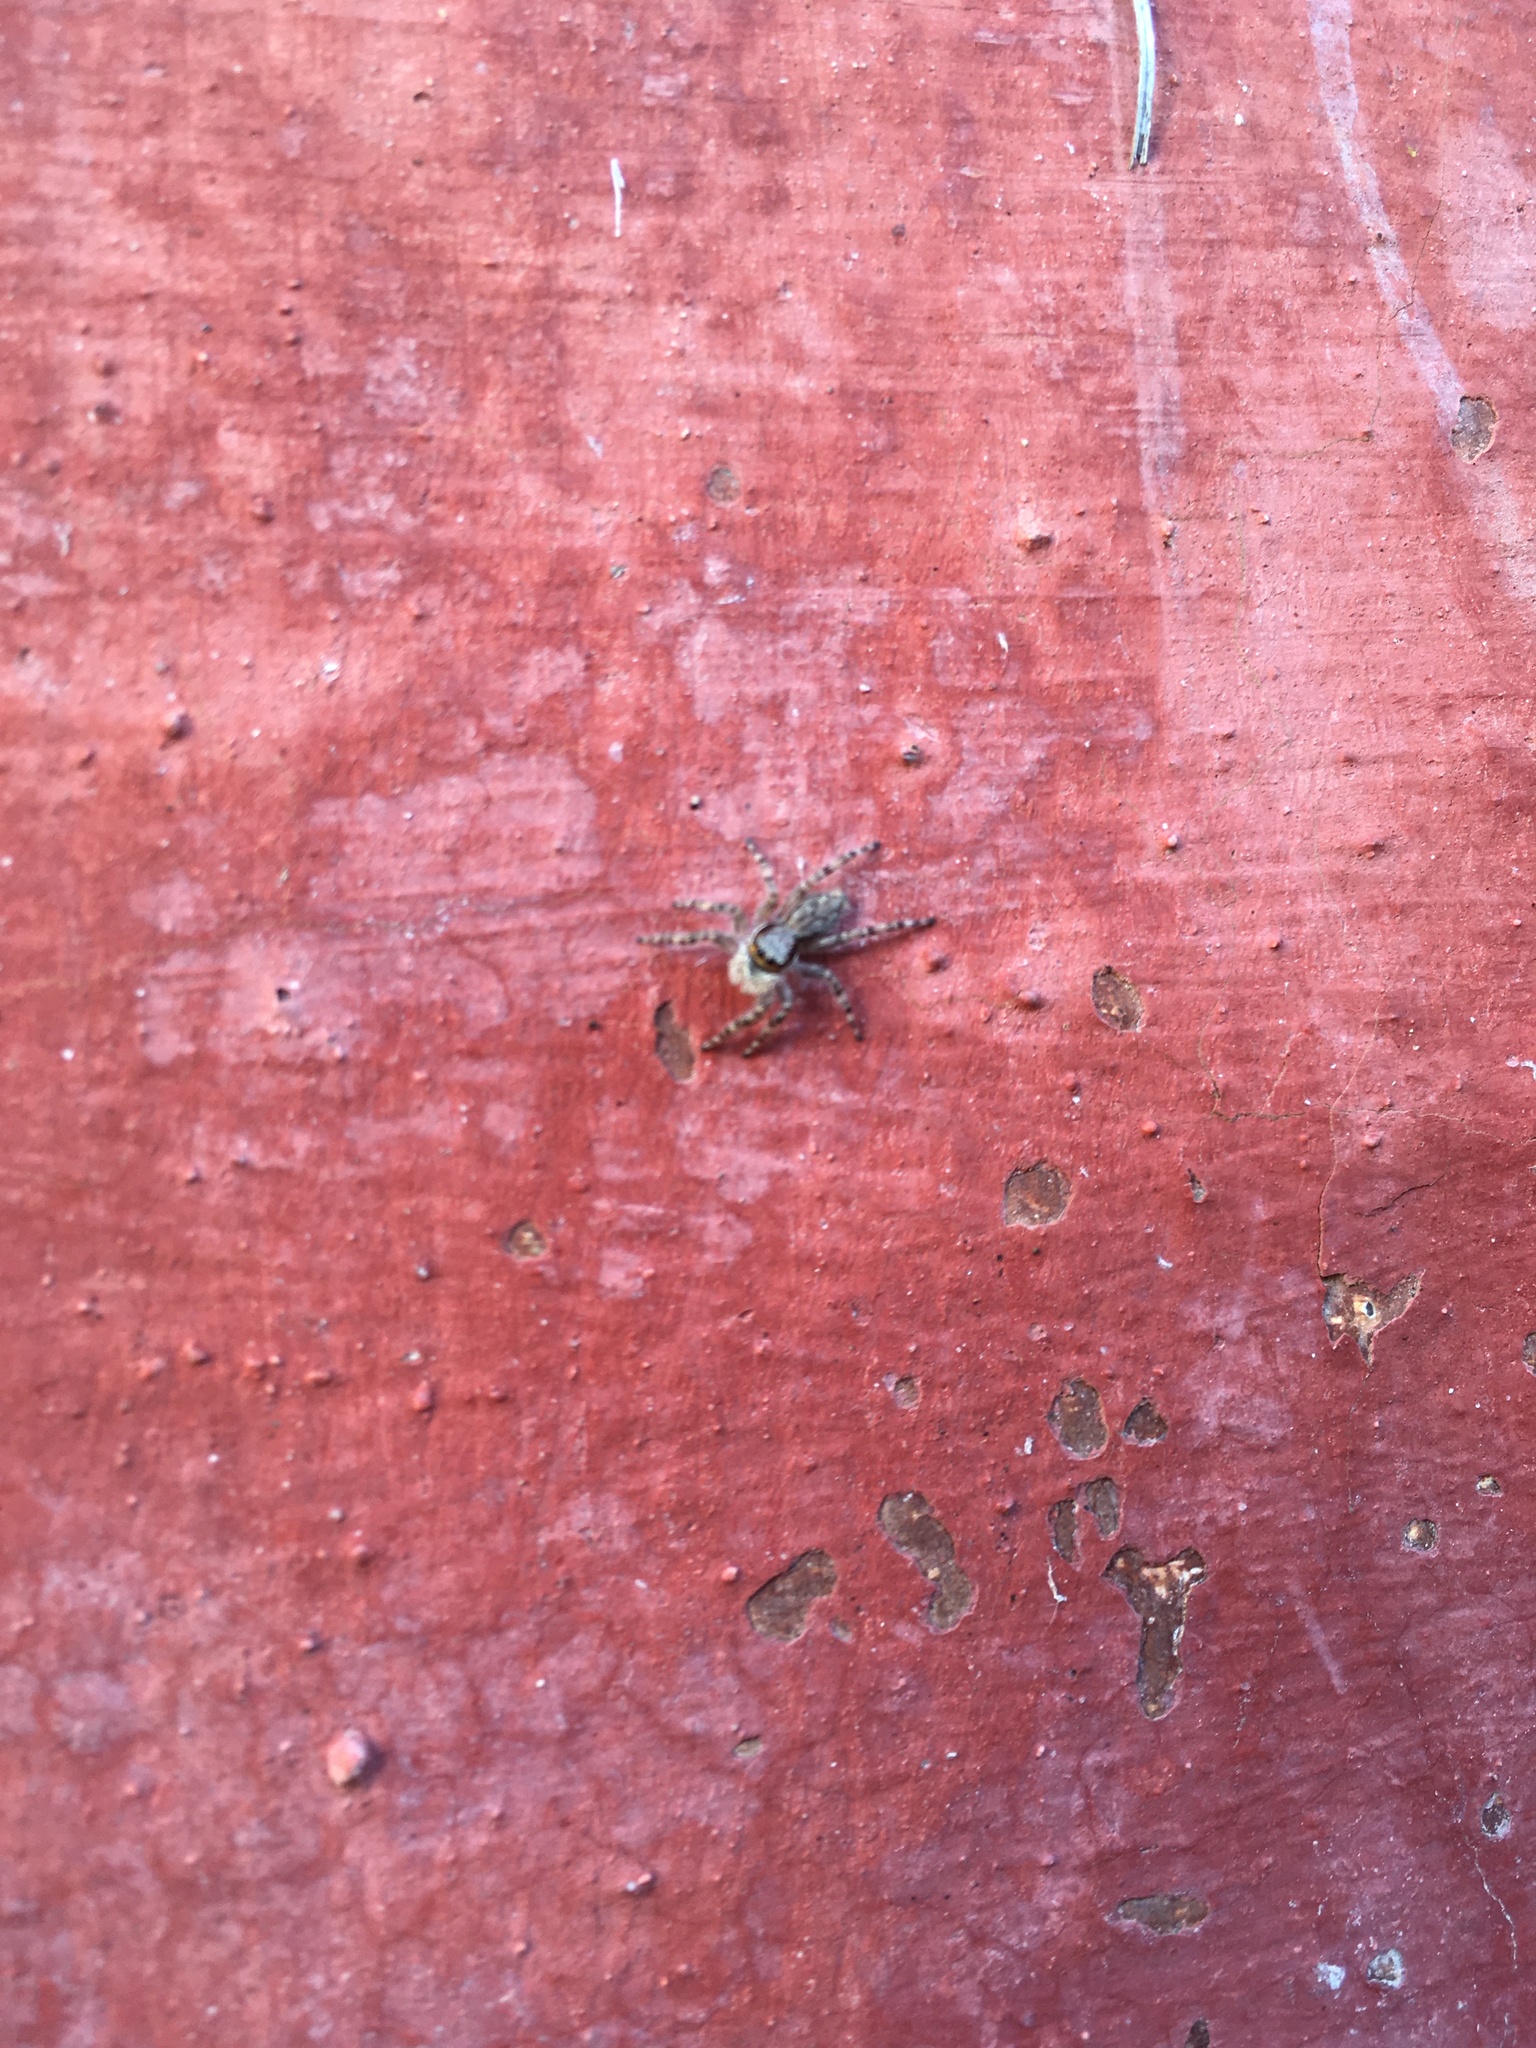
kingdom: Animalia
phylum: Arthropoda
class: Arachnida
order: Araneae
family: Salticidae
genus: Menemerus
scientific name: Menemerus bivittatus
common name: Gray wall jumper
